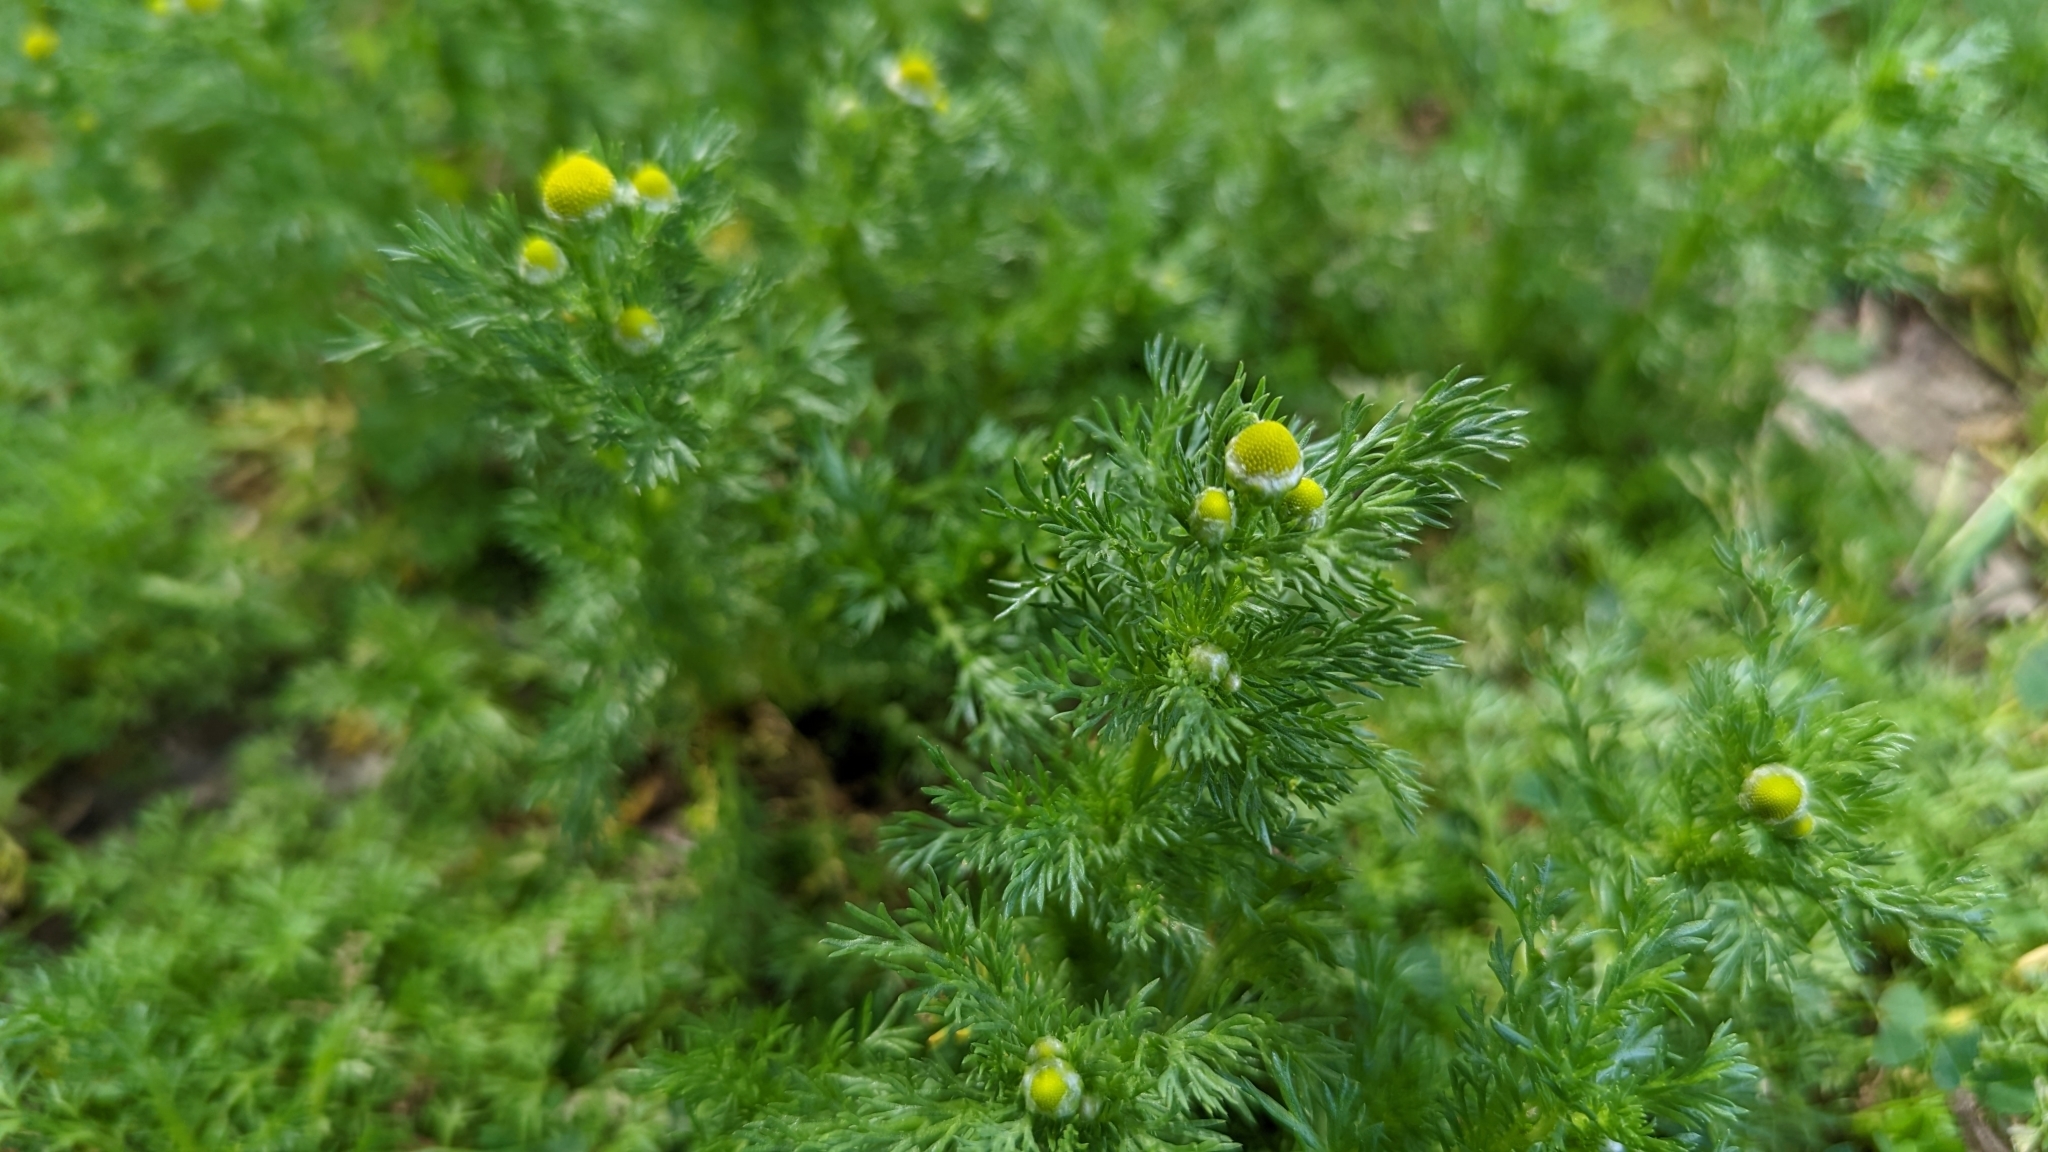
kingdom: Plantae
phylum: Tracheophyta
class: Magnoliopsida
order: Asterales
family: Asteraceae
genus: Matricaria
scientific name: Matricaria discoidea
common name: Disc mayweed
